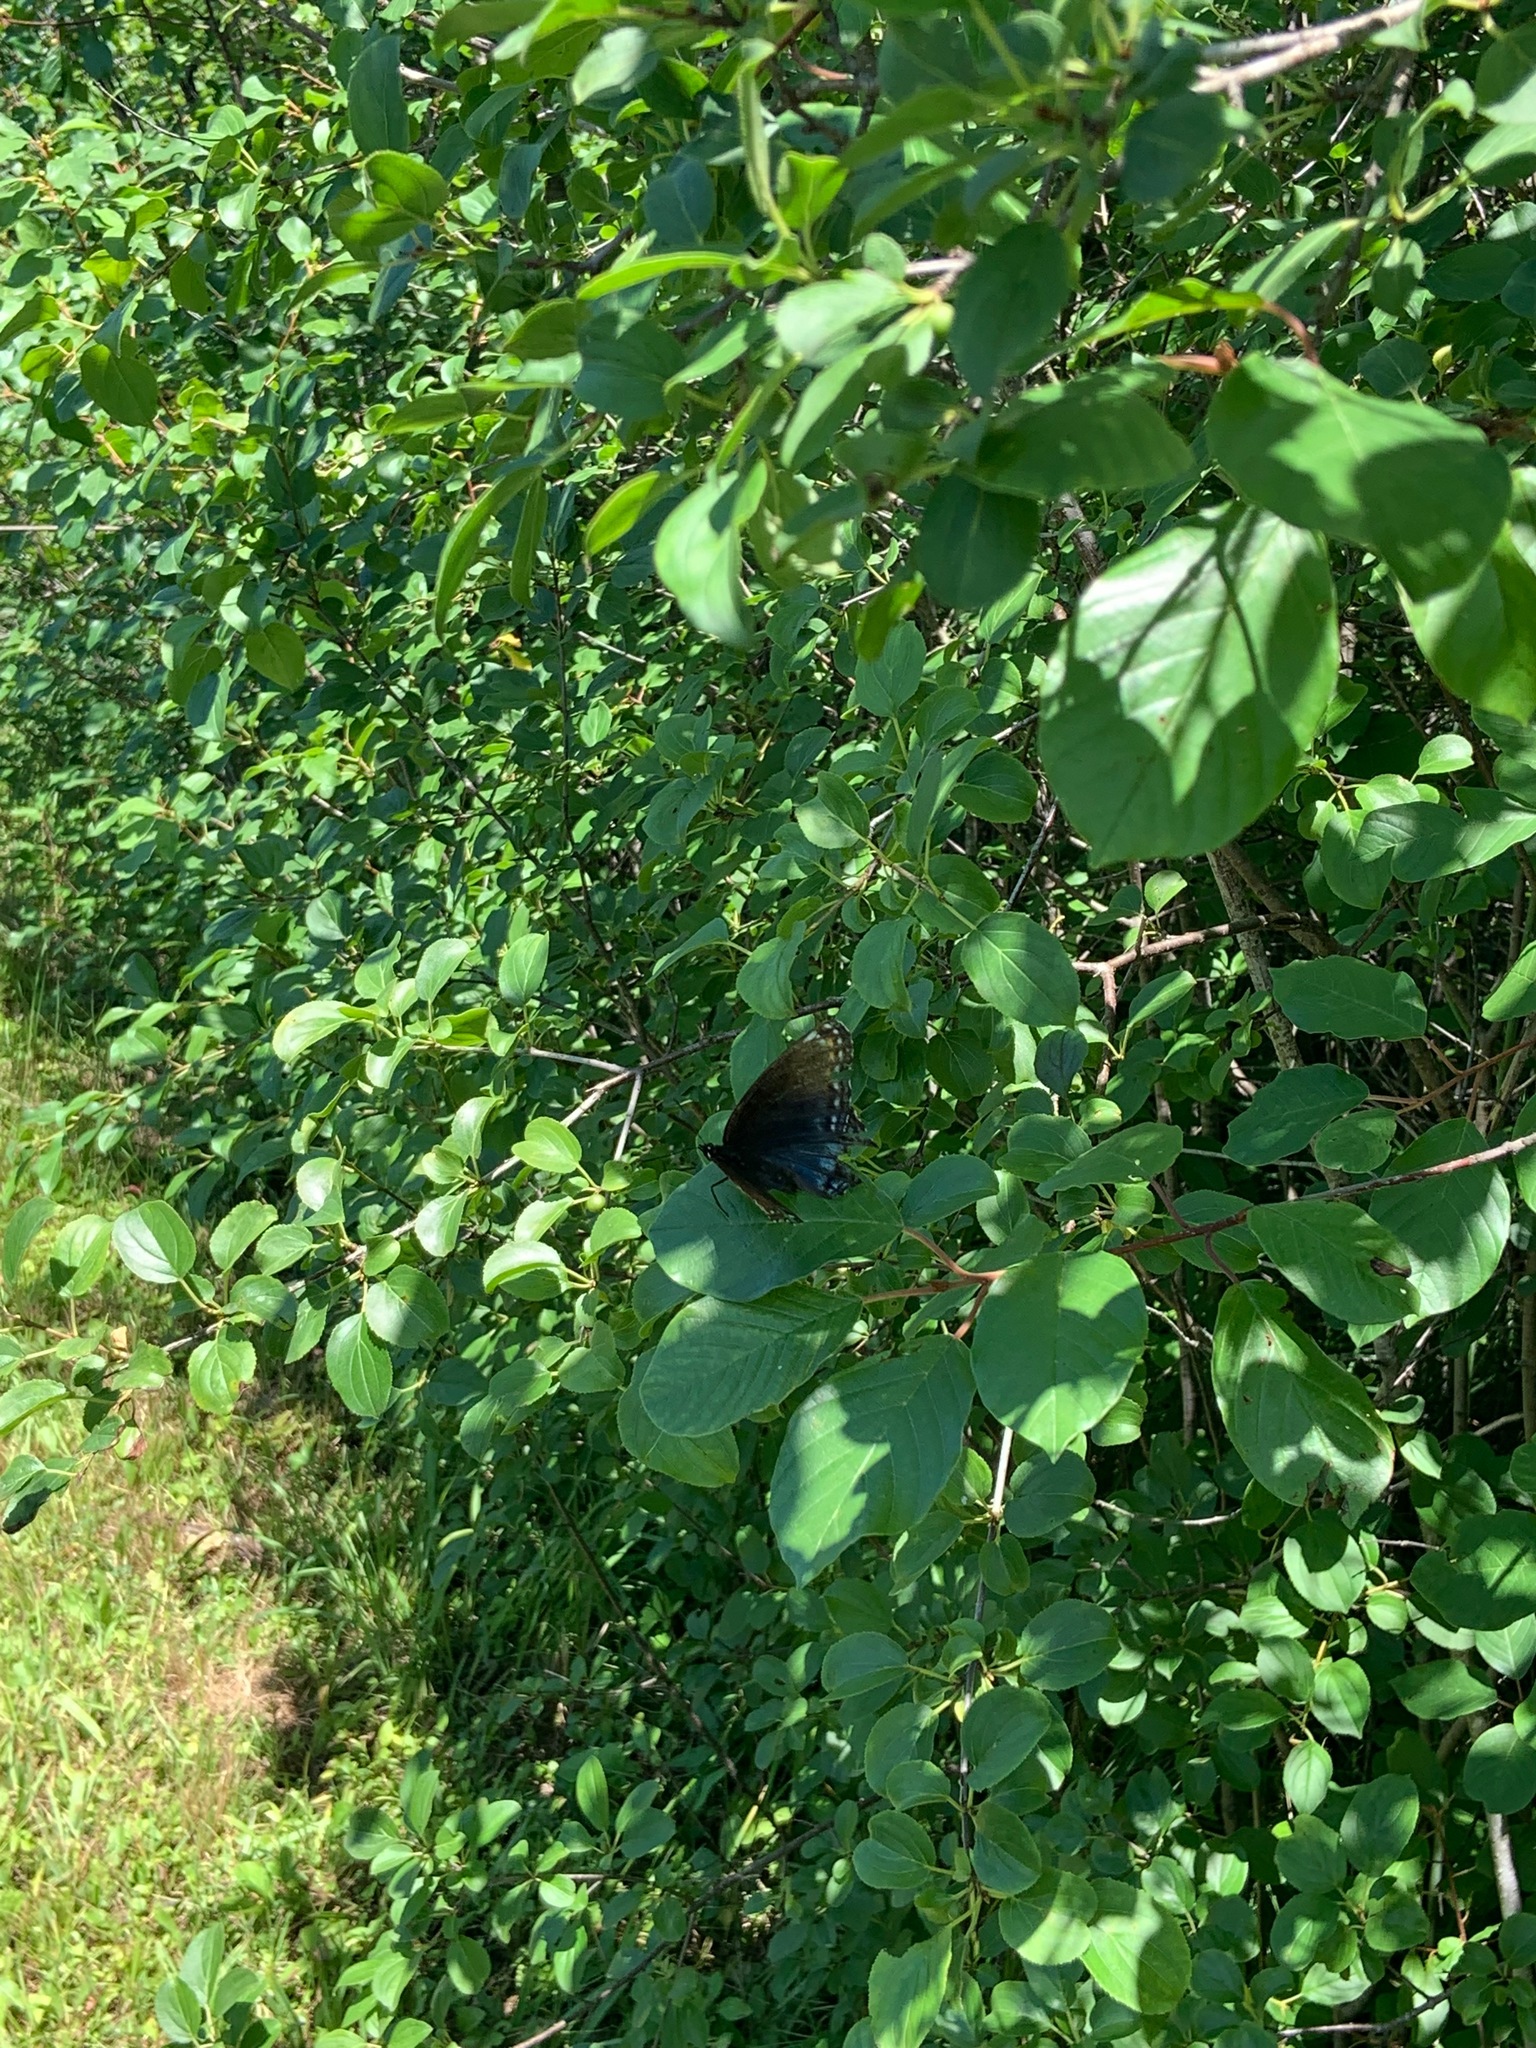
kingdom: Animalia
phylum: Arthropoda
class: Insecta
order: Lepidoptera
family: Nymphalidae
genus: Limenitis
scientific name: Limenitis astyanax
